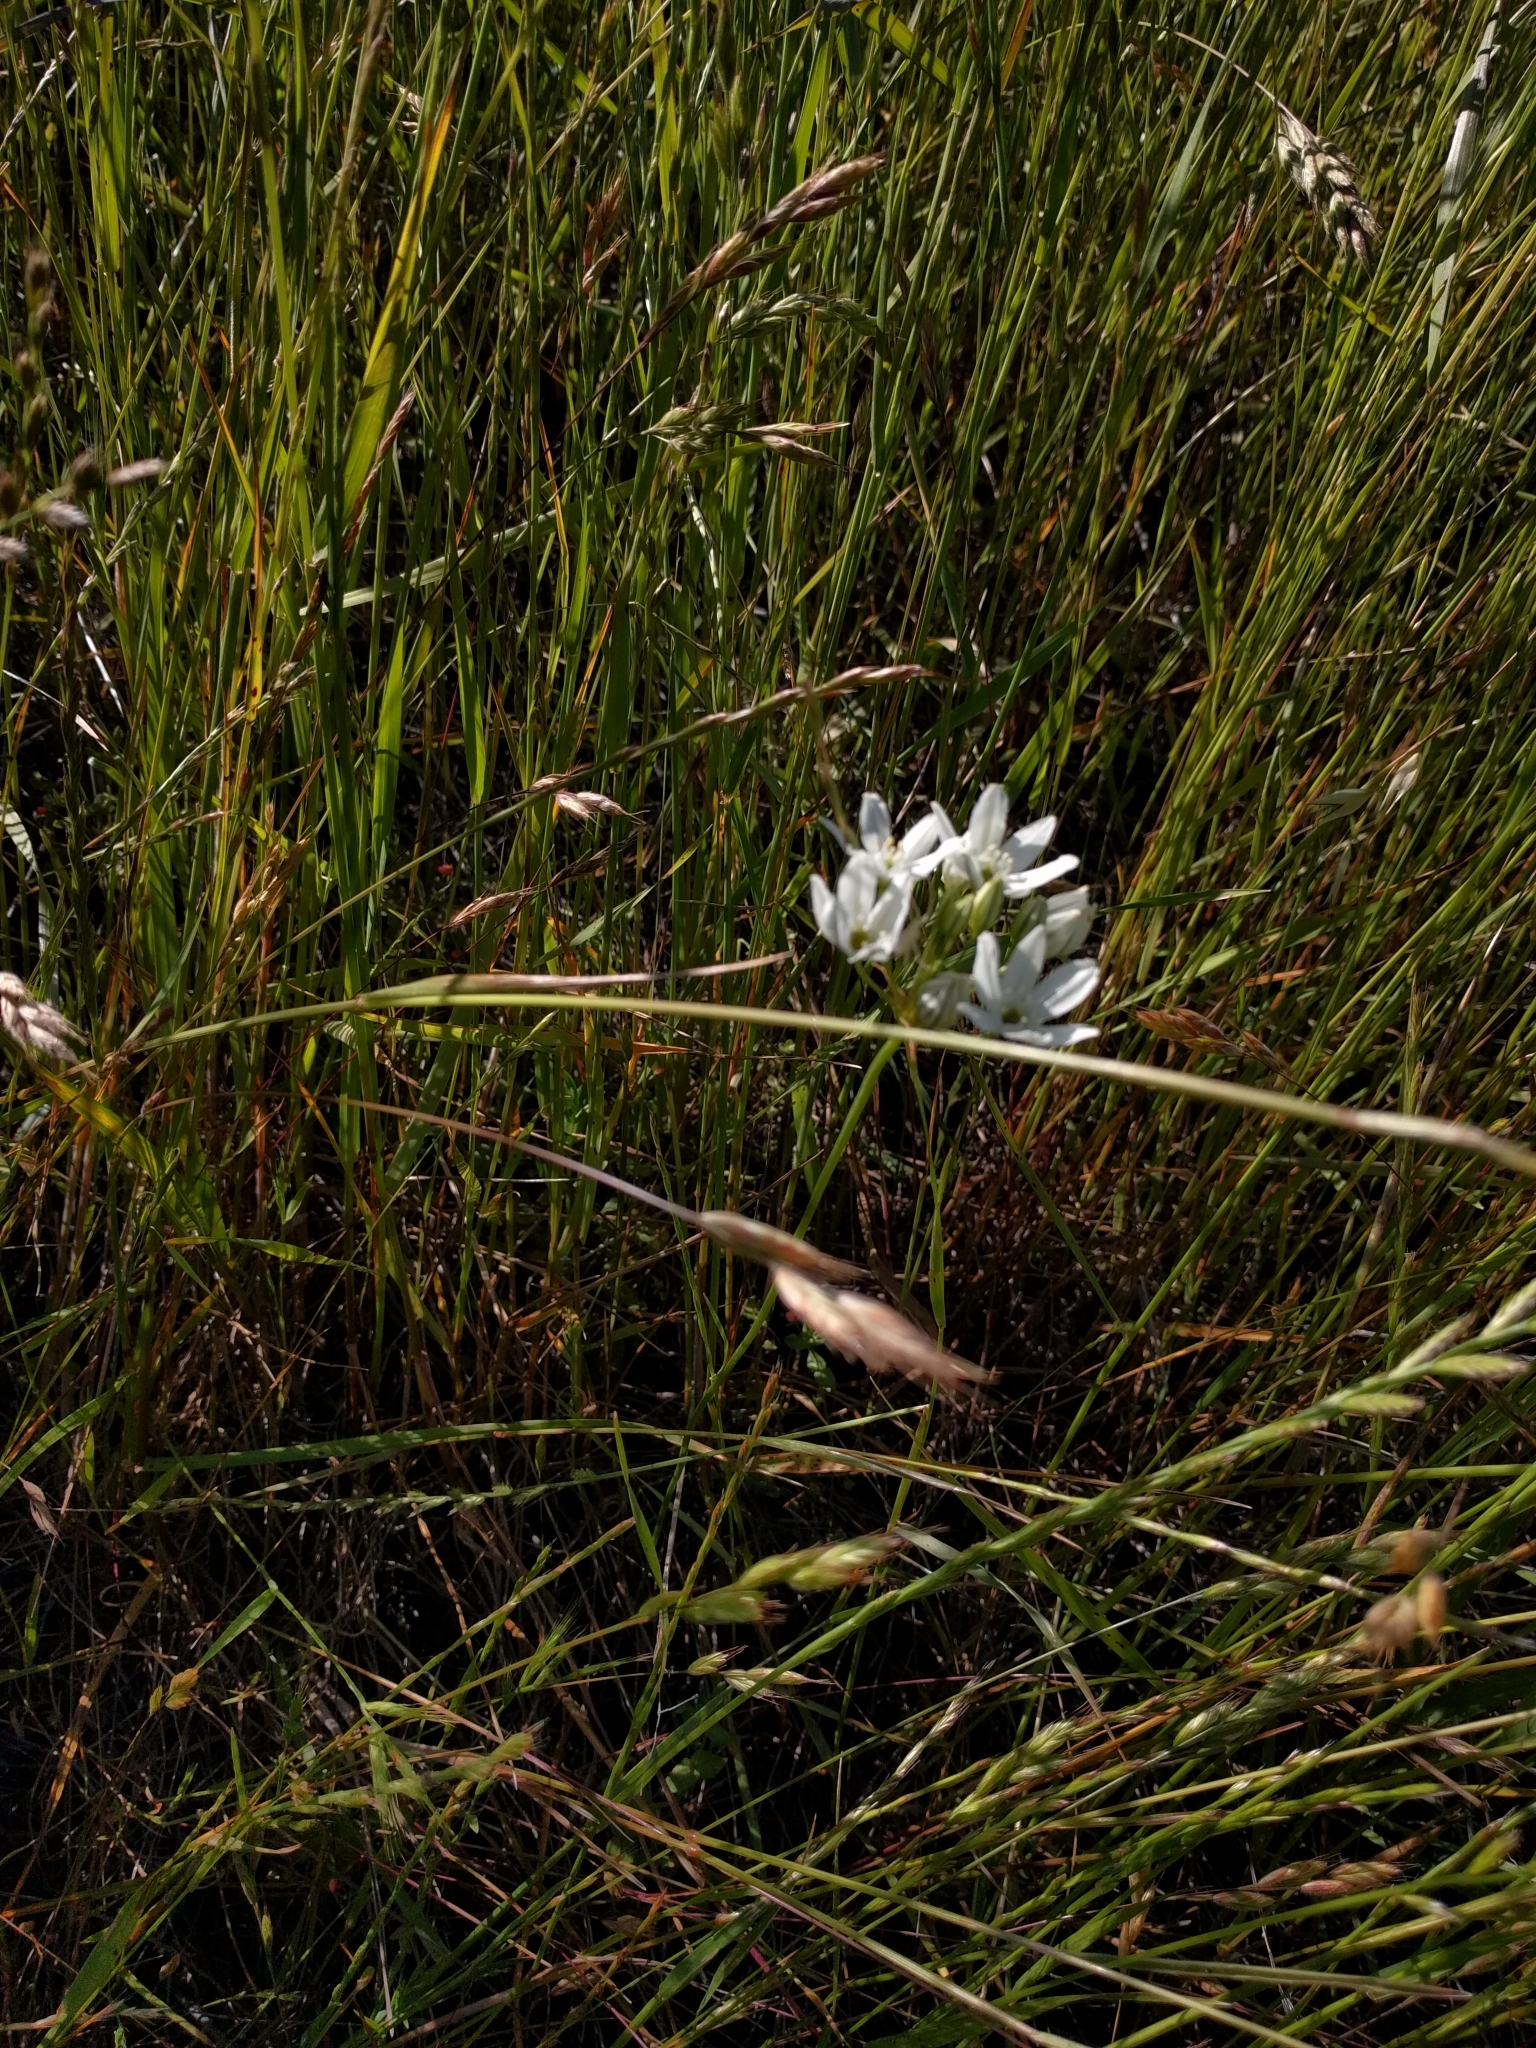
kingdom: Plantae
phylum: Tracheophyta
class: Liliopsida
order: Asparagales
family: Asparagaceae
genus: Triteleia
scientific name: Triteleia hyacinthina
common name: White brodiaea
